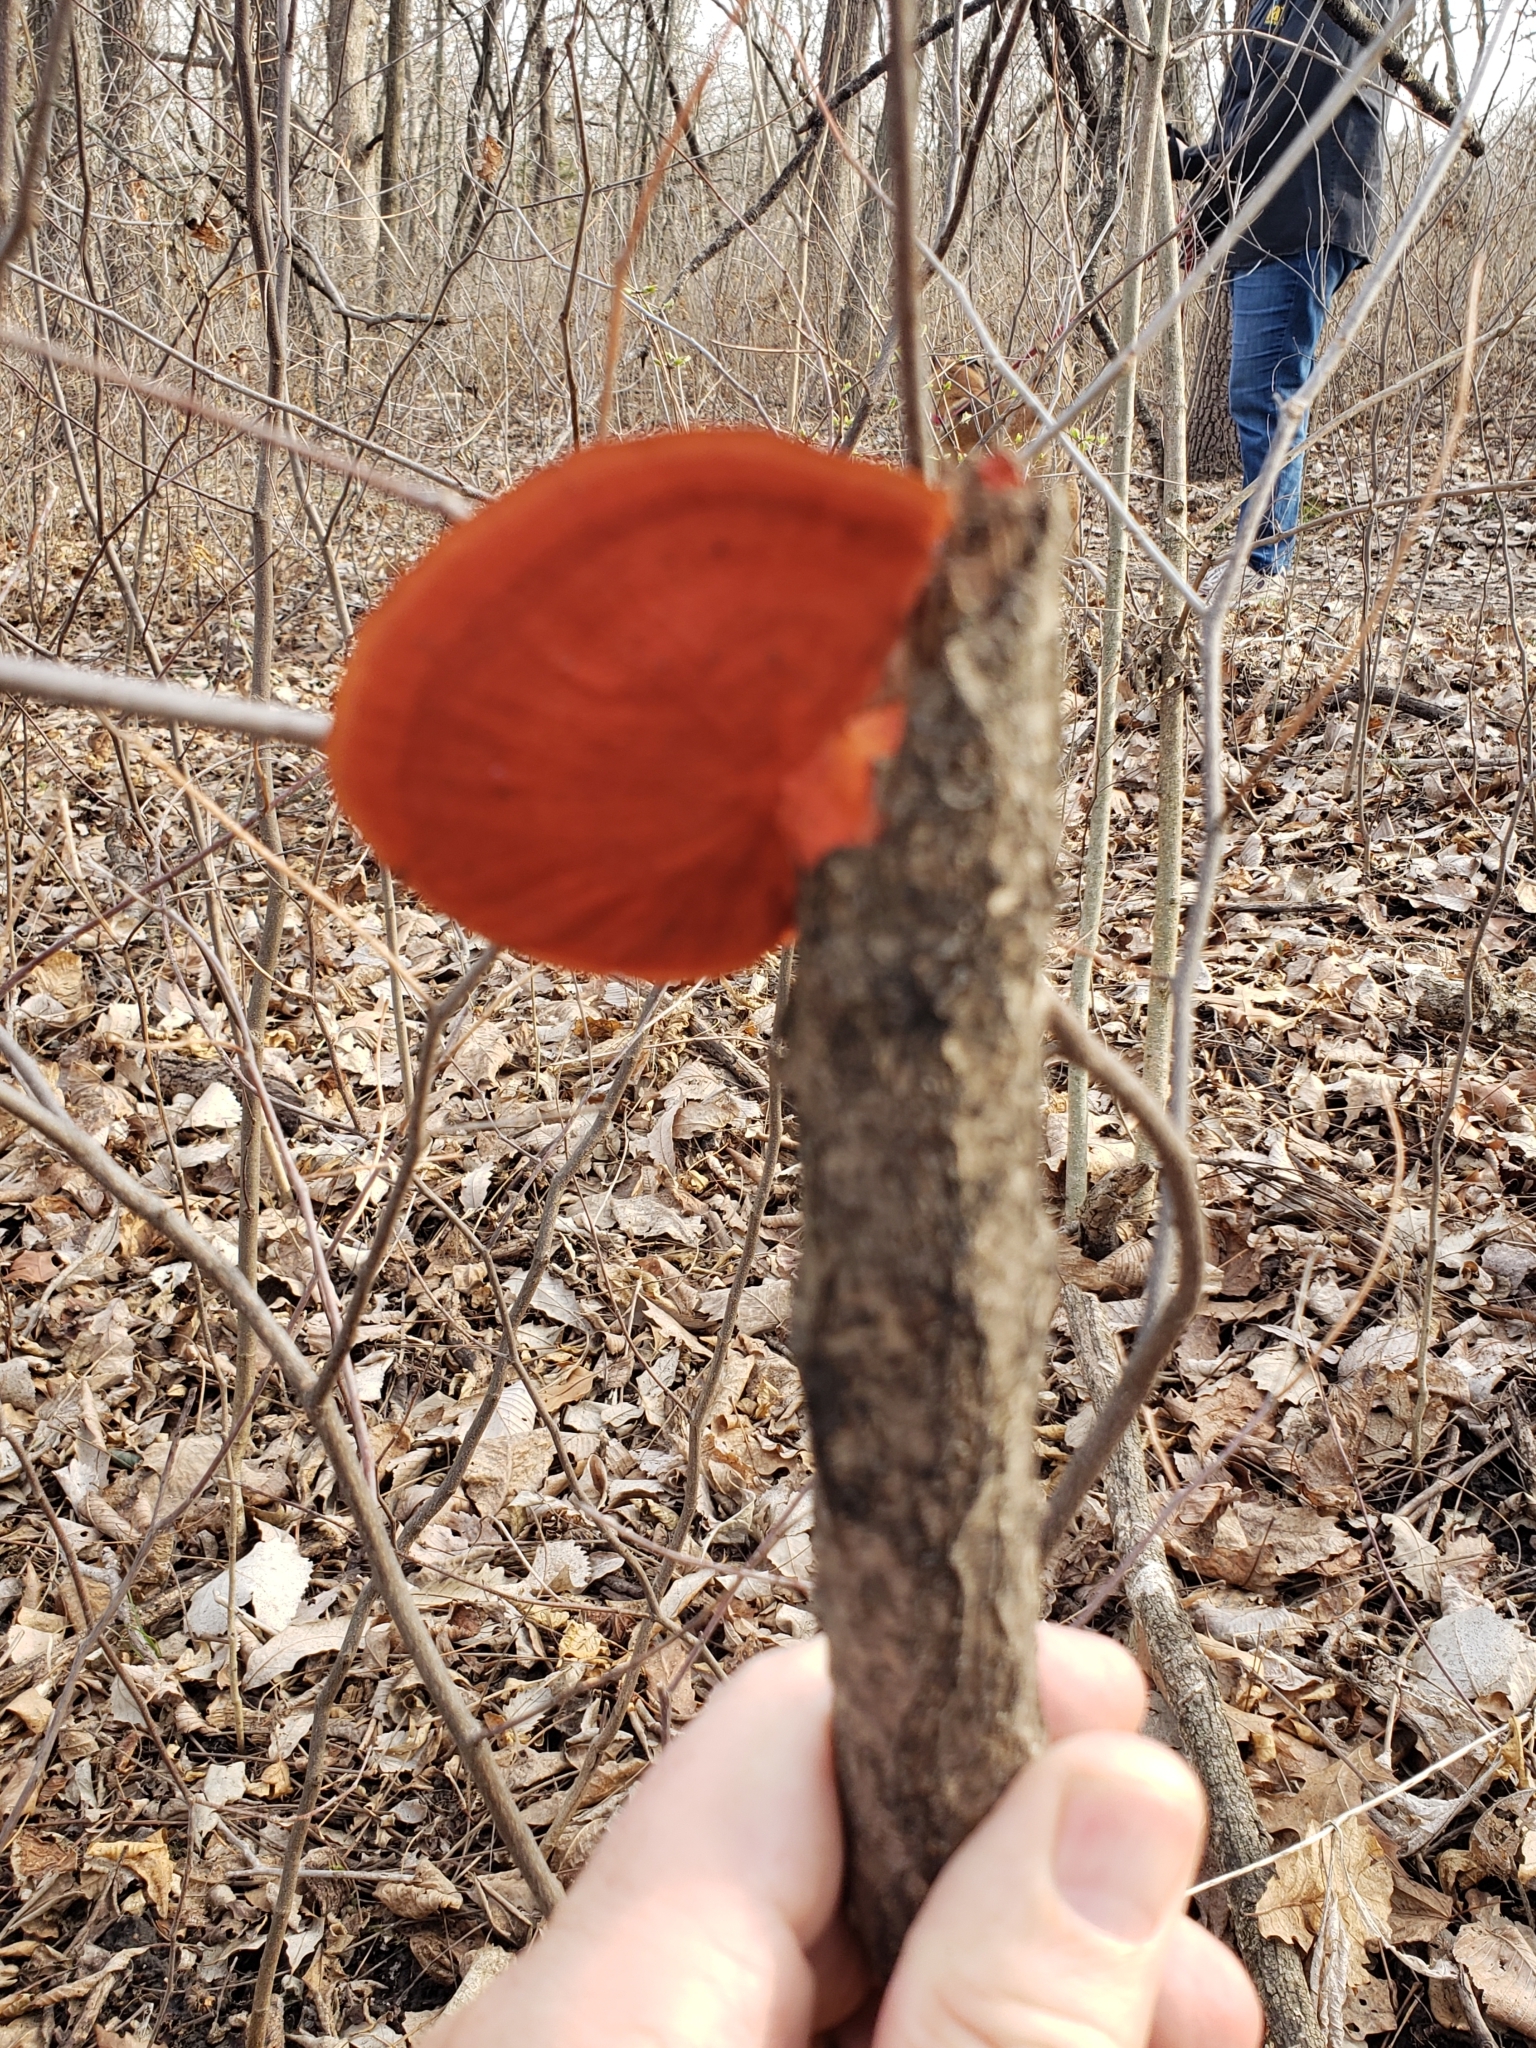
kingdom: Fungi
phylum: Basidiomycota
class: Agaricomycetes
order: Polyporales
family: Polyporaceae
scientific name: Polyporaceae
